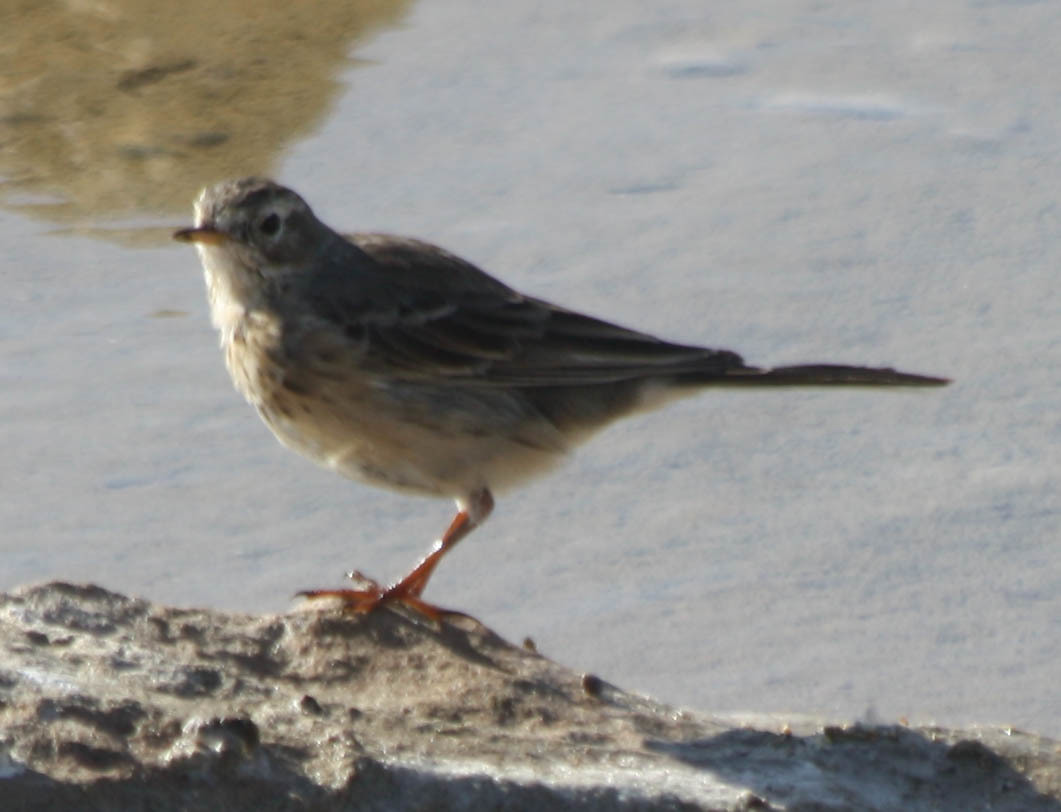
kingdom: Animalia
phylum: Chordata
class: Aves
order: Passeriformes
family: Motacillidae
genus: Anthus
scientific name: Anthus rubescens
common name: Buff-bellied pipit
